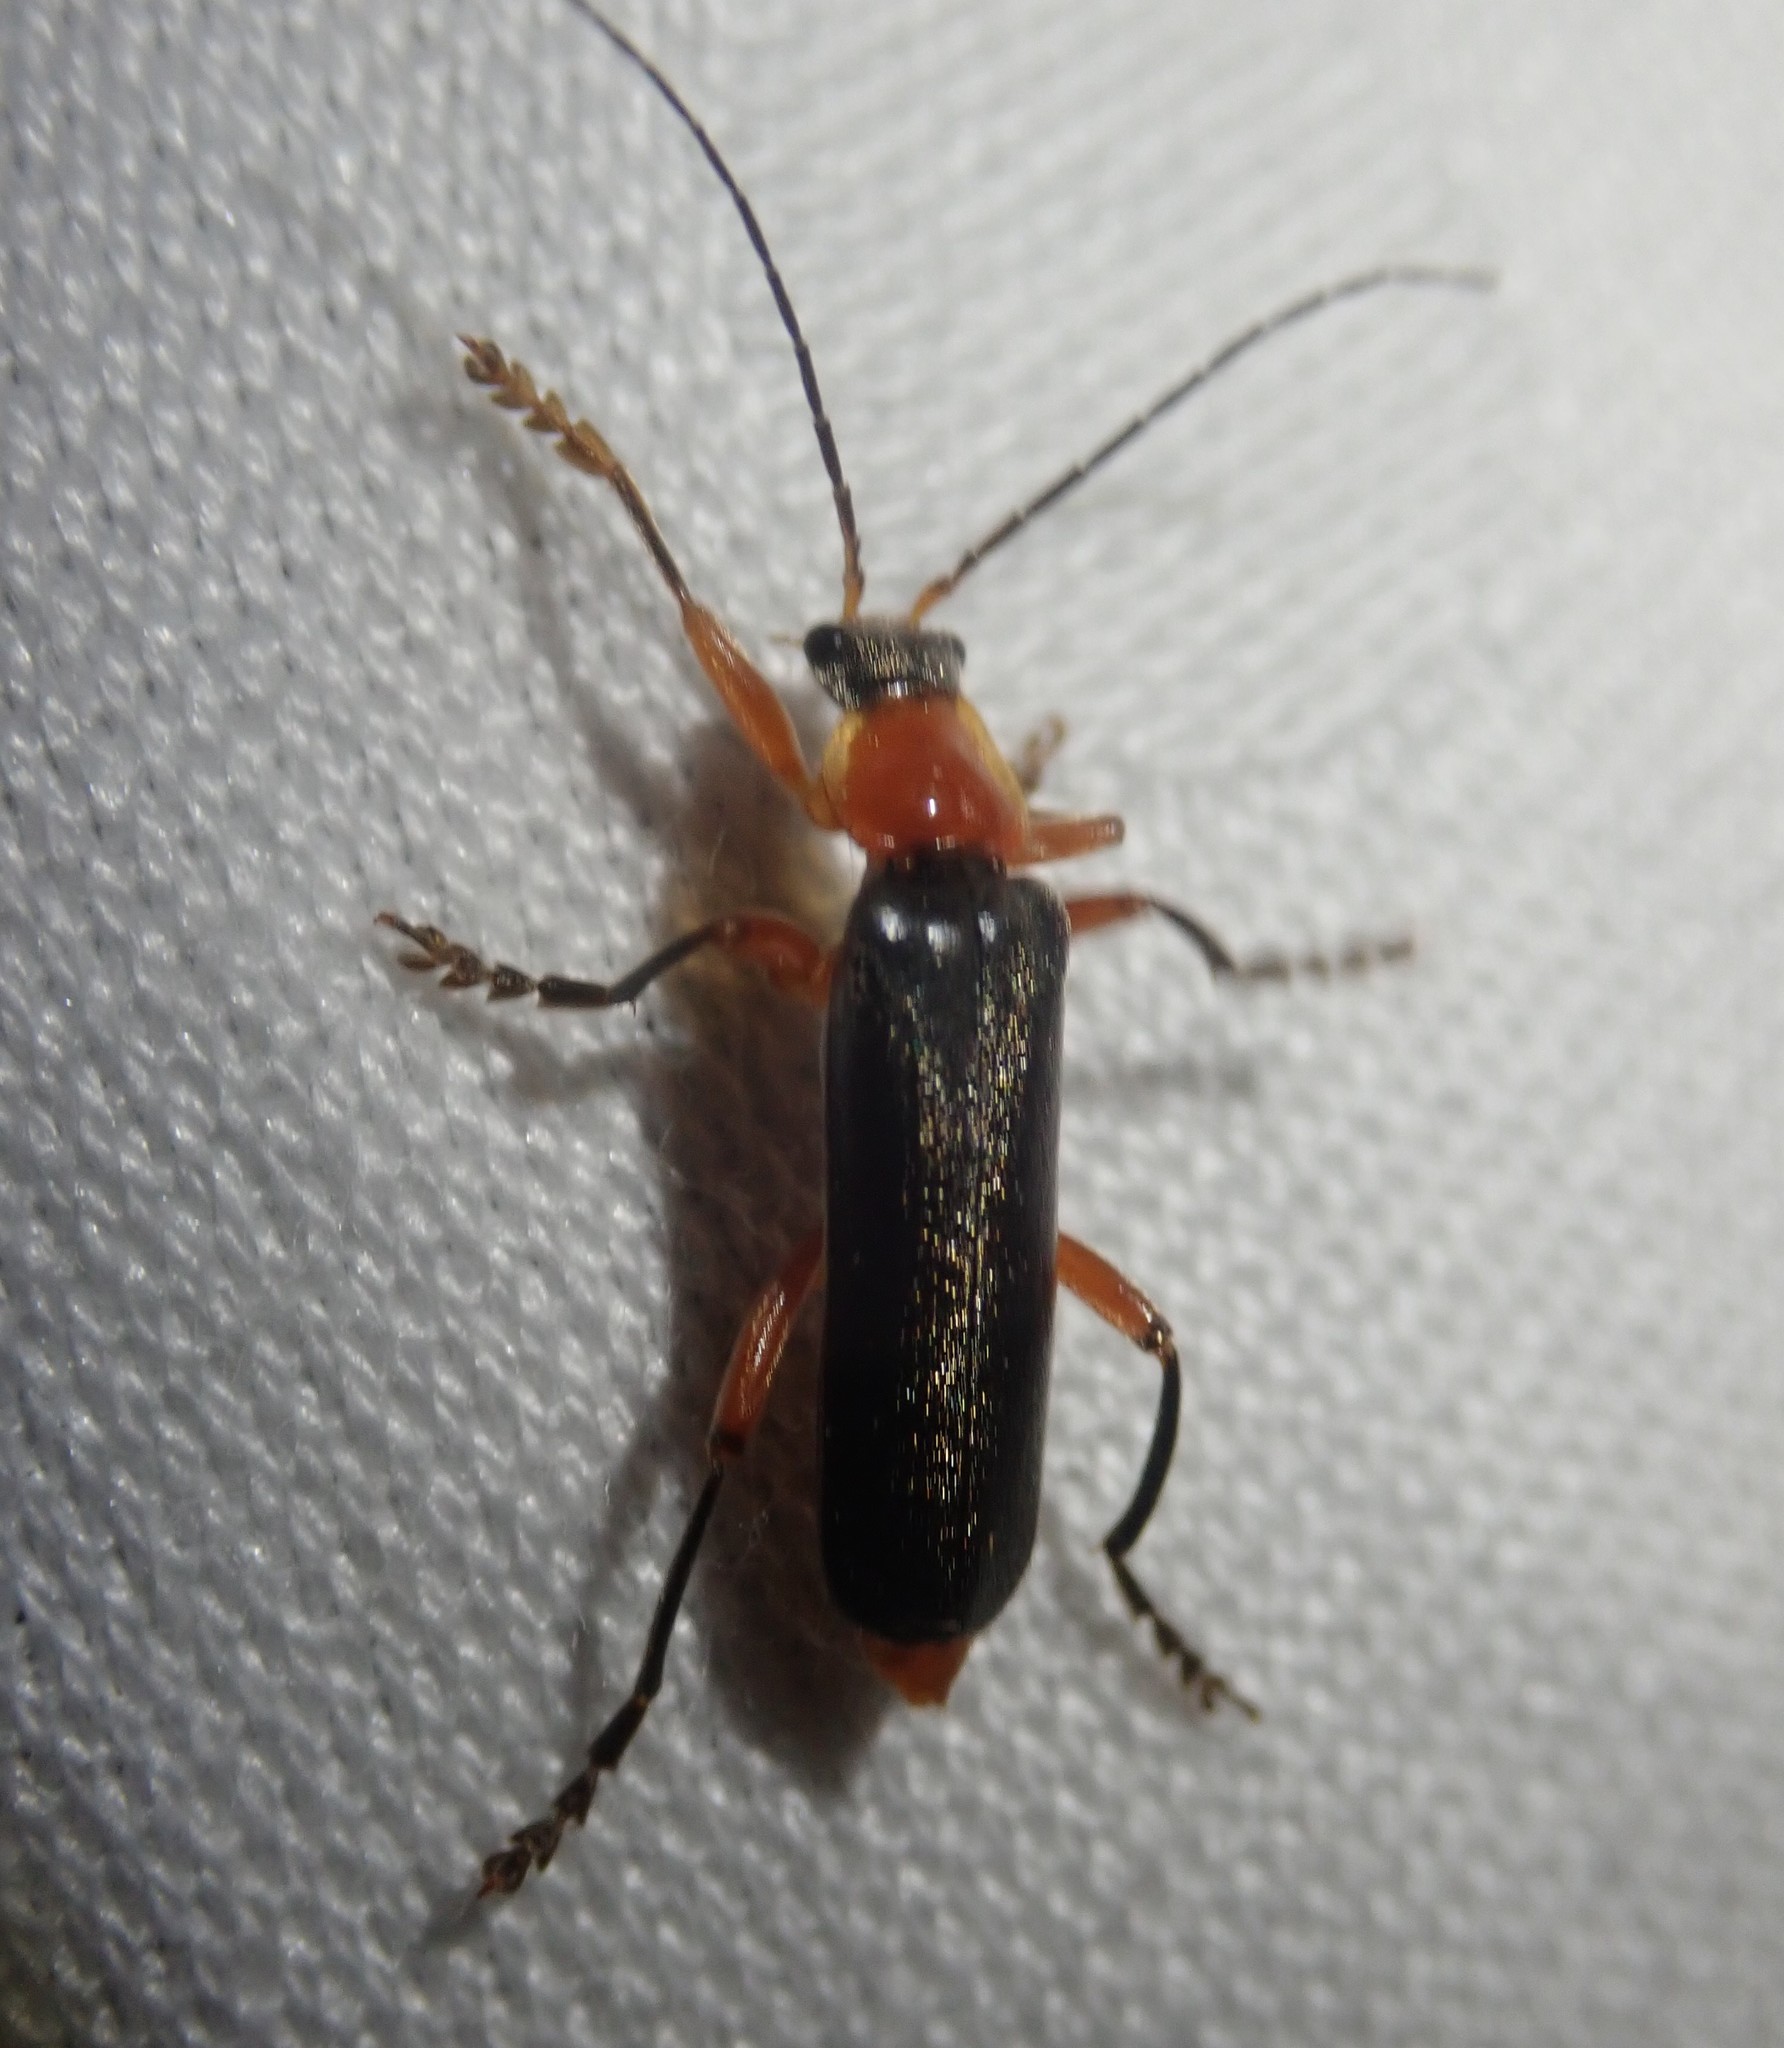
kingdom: Animalia
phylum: Arthropoda
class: Insecta
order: Coleoptera
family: Cantharidae
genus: Cantharis
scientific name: Cantharis pellucida
